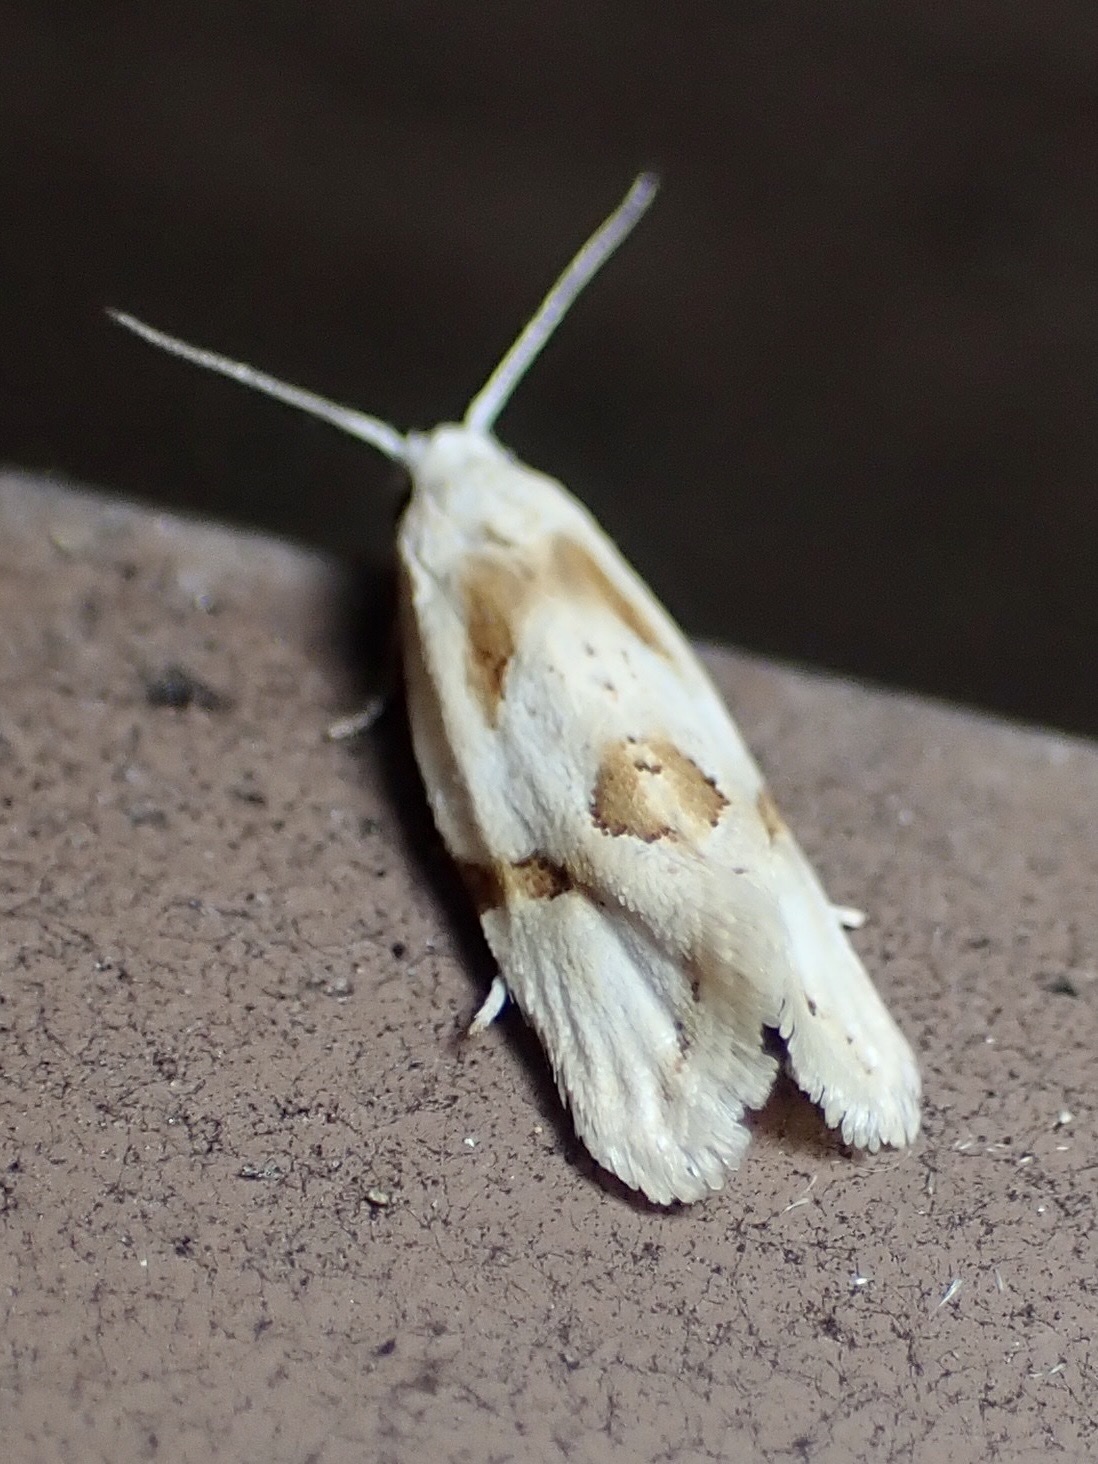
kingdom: Animalia
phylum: Arthropoda
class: Insecta
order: Lepidoptera
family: Tortricidae
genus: Aethes
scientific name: Aethes seriatana
